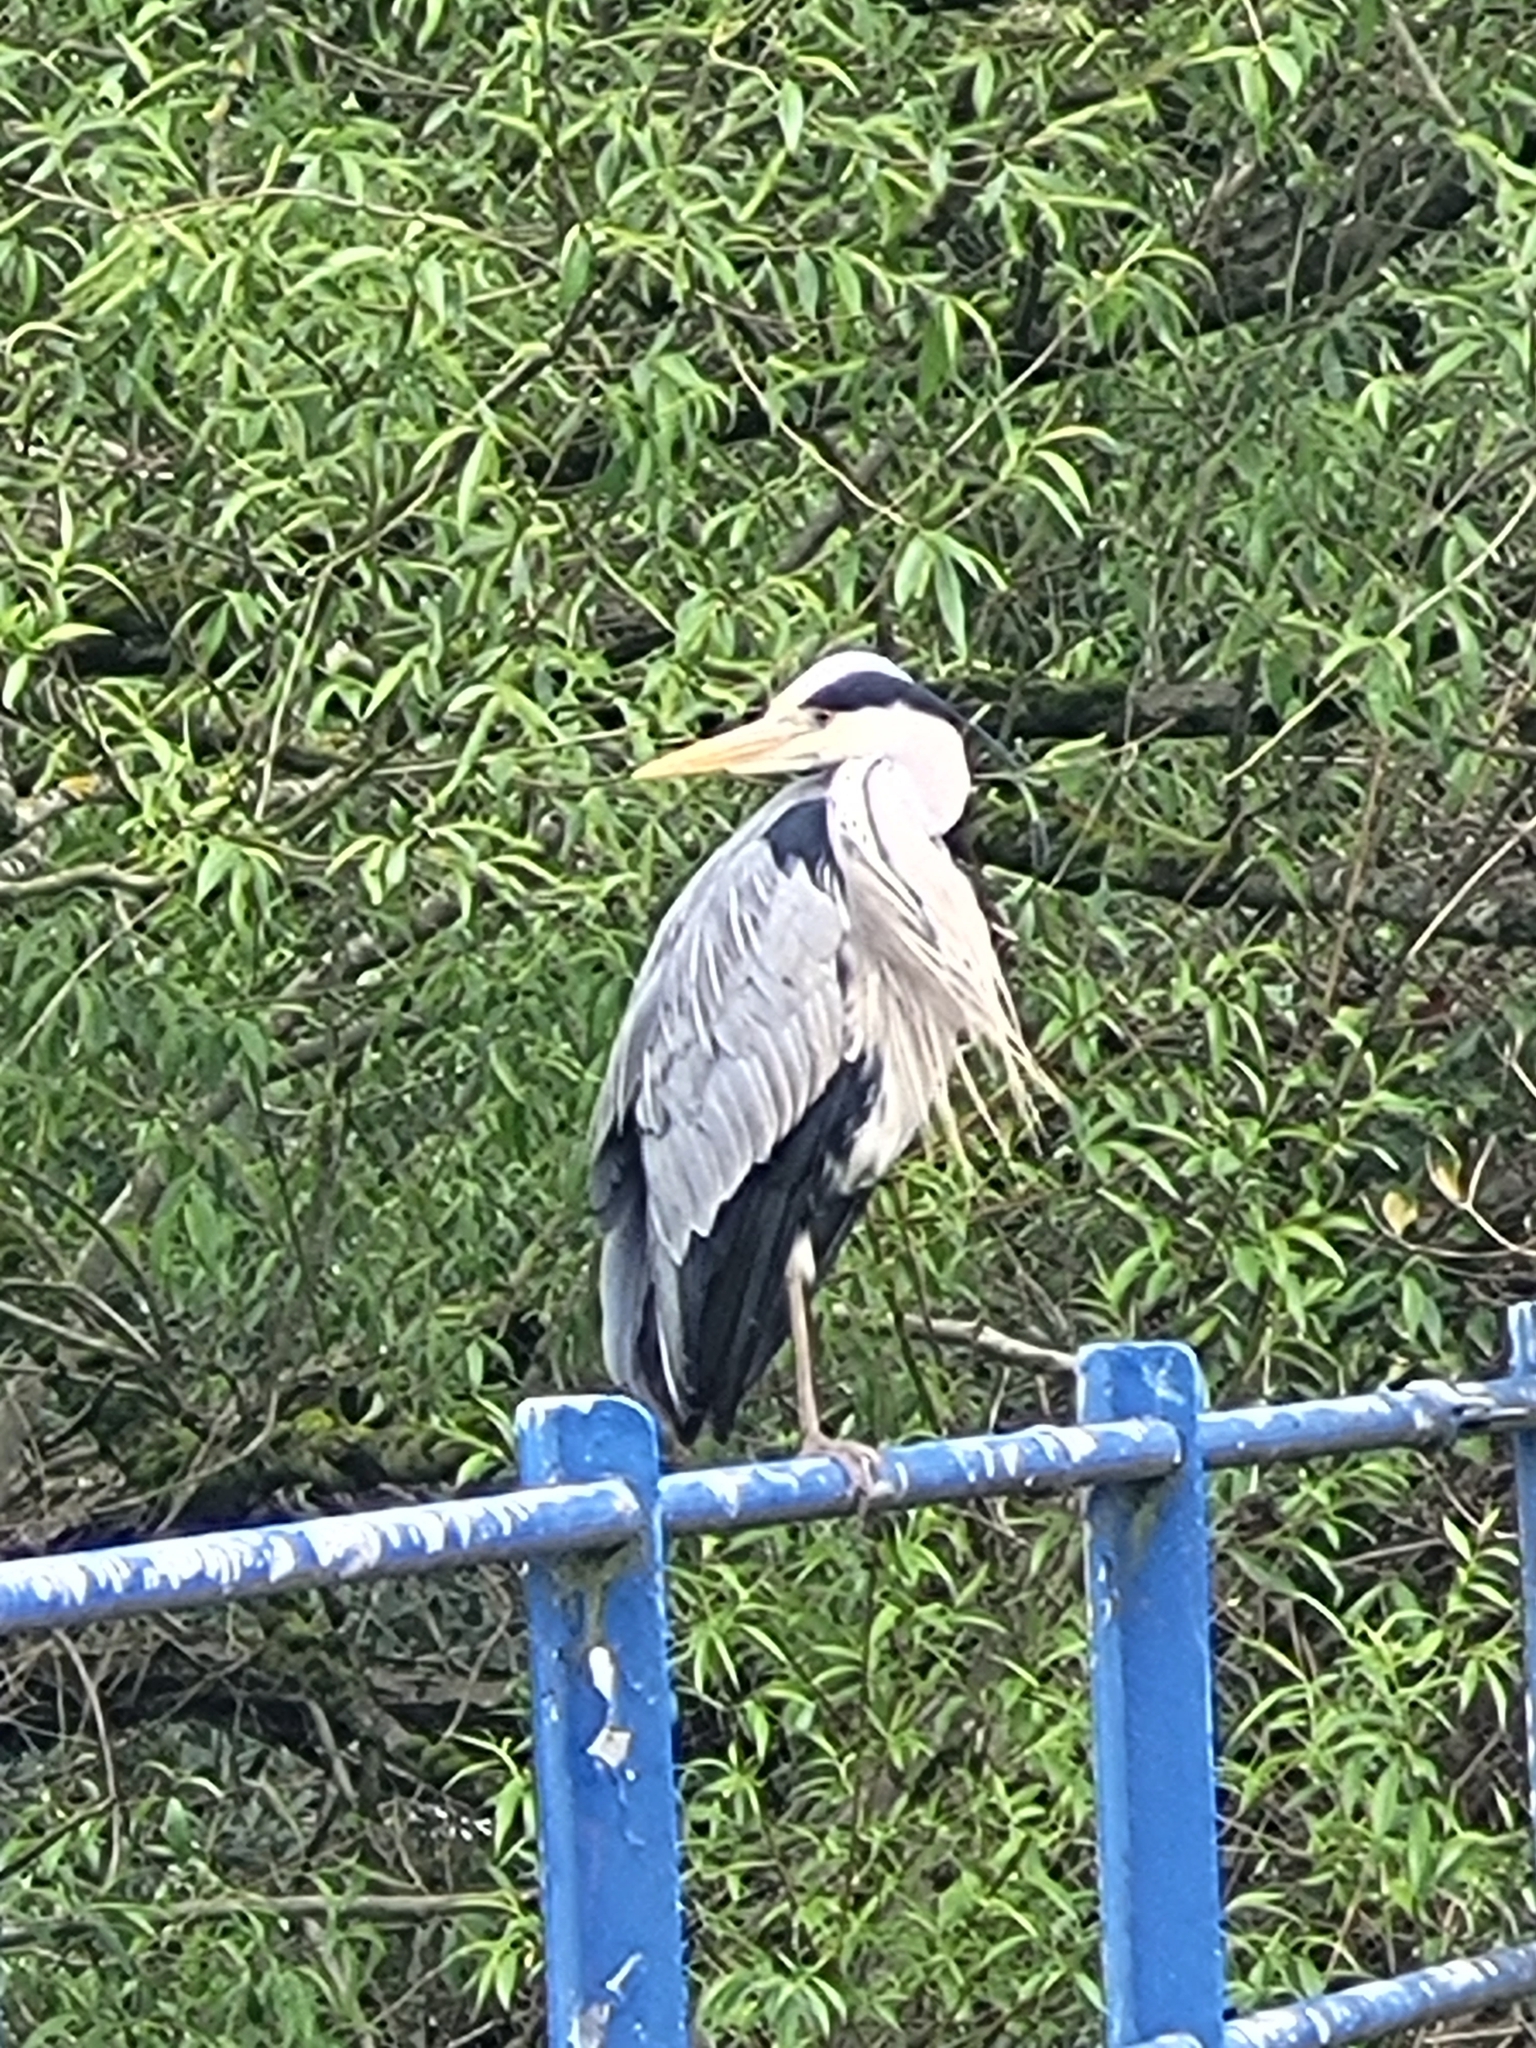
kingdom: Animalia
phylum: Chordata
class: Aves
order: Pelecaniformes
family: Ardeidae
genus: Ardea
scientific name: Ardea cinerea
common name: Grey heron
